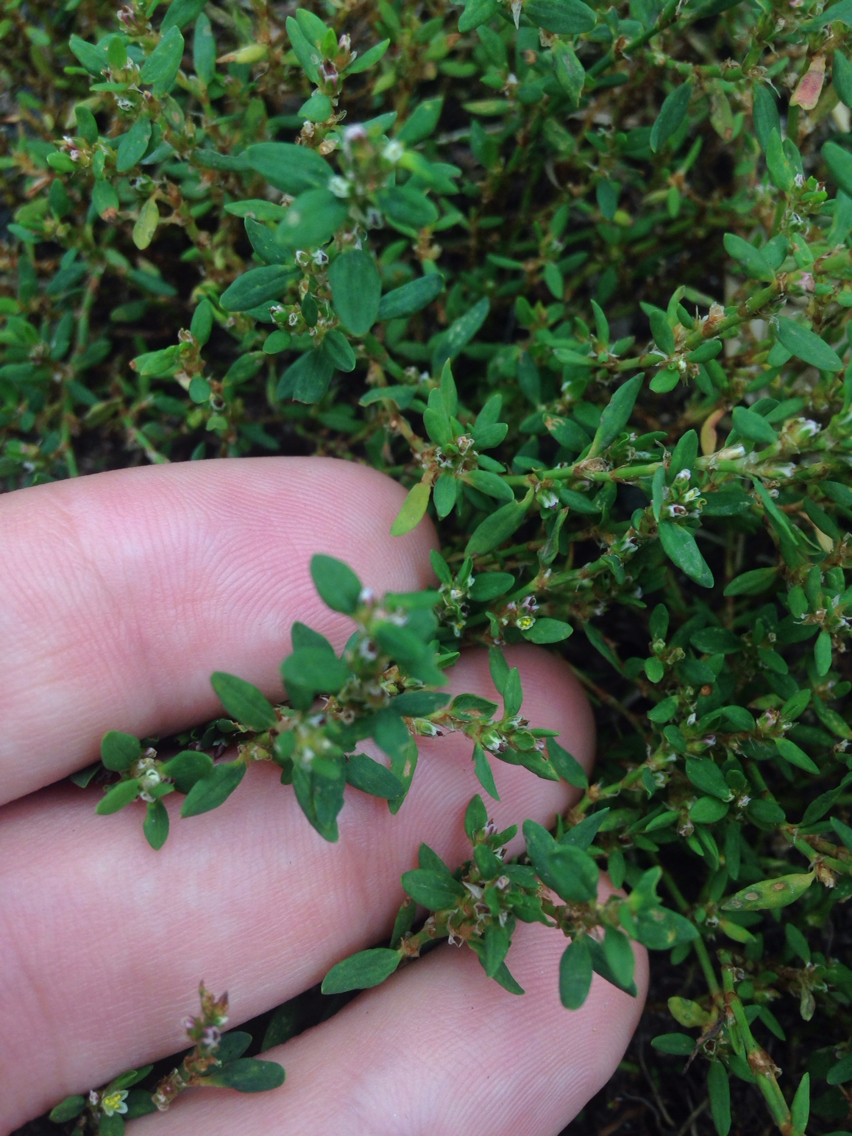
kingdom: Plantae
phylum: Tracheophyta
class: Magnoliopsida
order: Caryophyllales
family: Polygonaceae
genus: Polygonum
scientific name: Polygonum aviculare
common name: Prostrate knotweed
